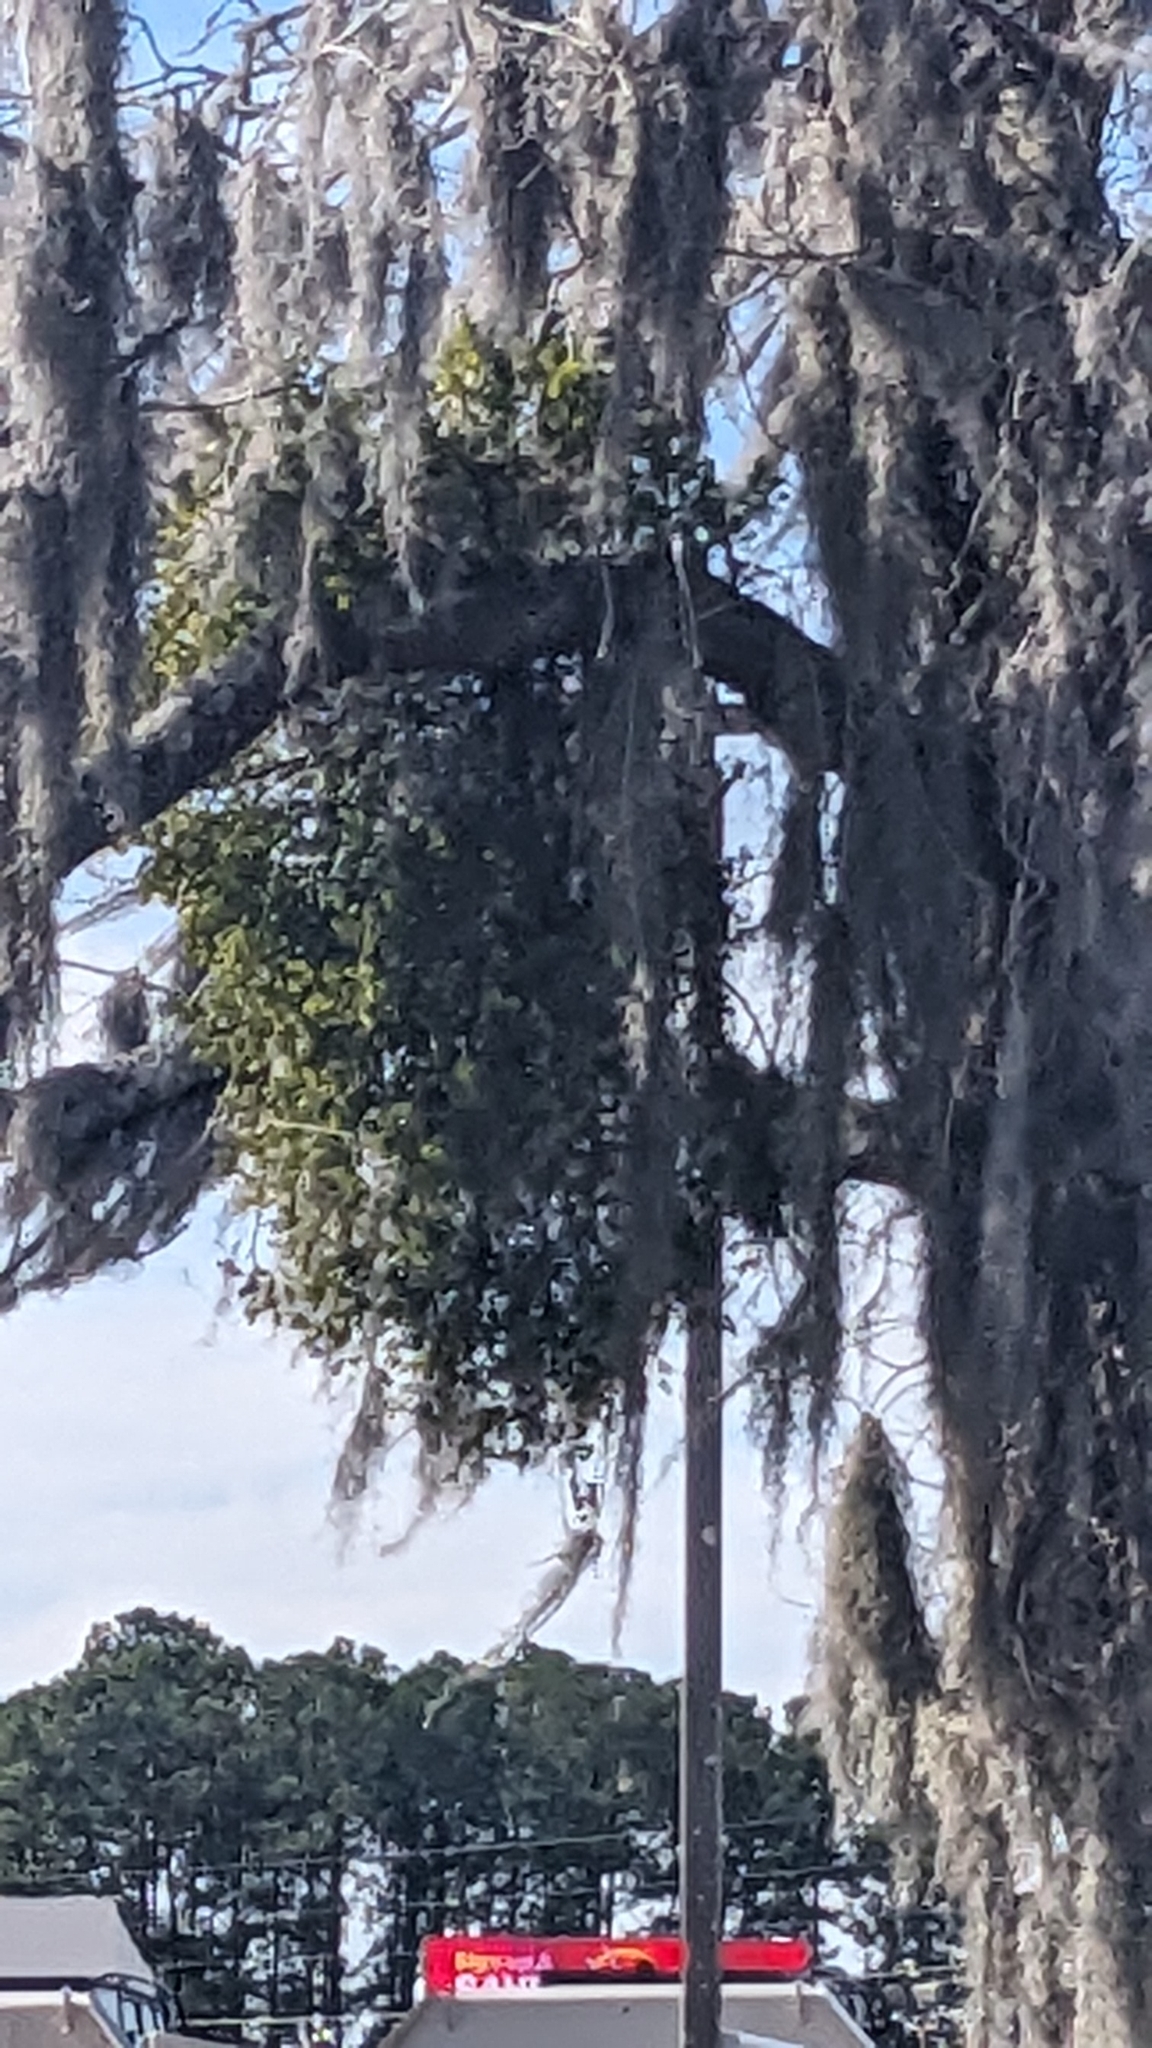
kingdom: Plantae
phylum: Tracheophyta
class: Magnoliopsida
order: Santalales
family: Viscaceae
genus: Phoradendron
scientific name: Phoradendron leucarpum
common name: Pacific mistletoe
